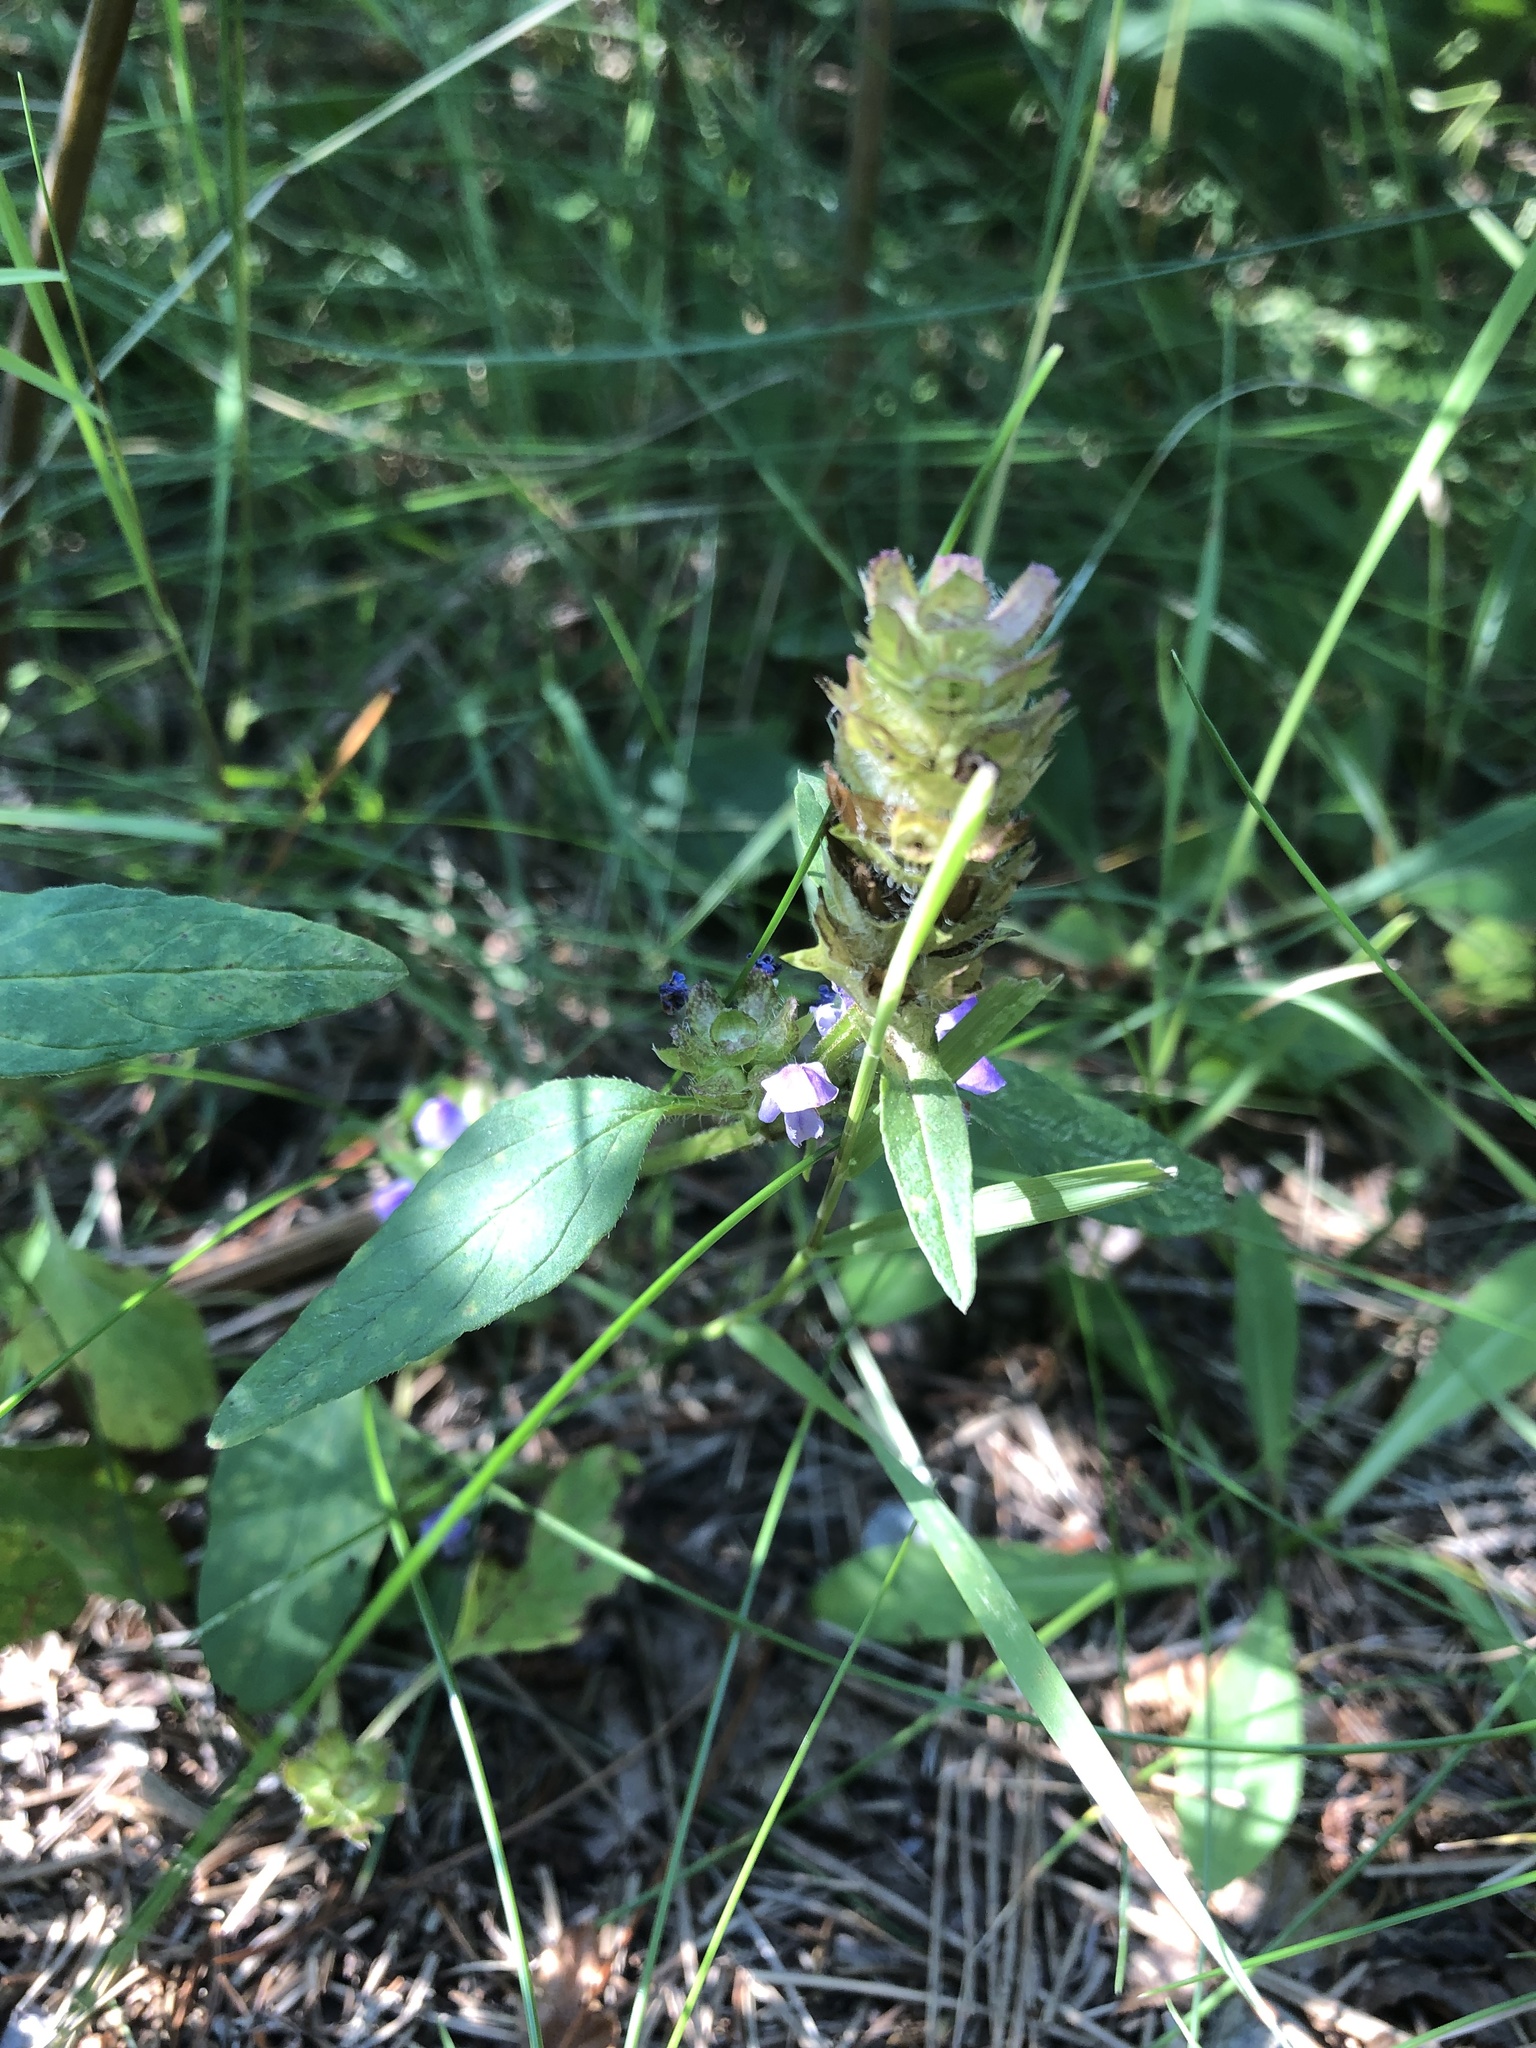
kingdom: Plantae
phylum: Tracheophyta
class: Magnoliopsida
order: Lamiales
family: Lamiaceae
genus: Prunella
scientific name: Prunella vulgaris
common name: Heal-all
